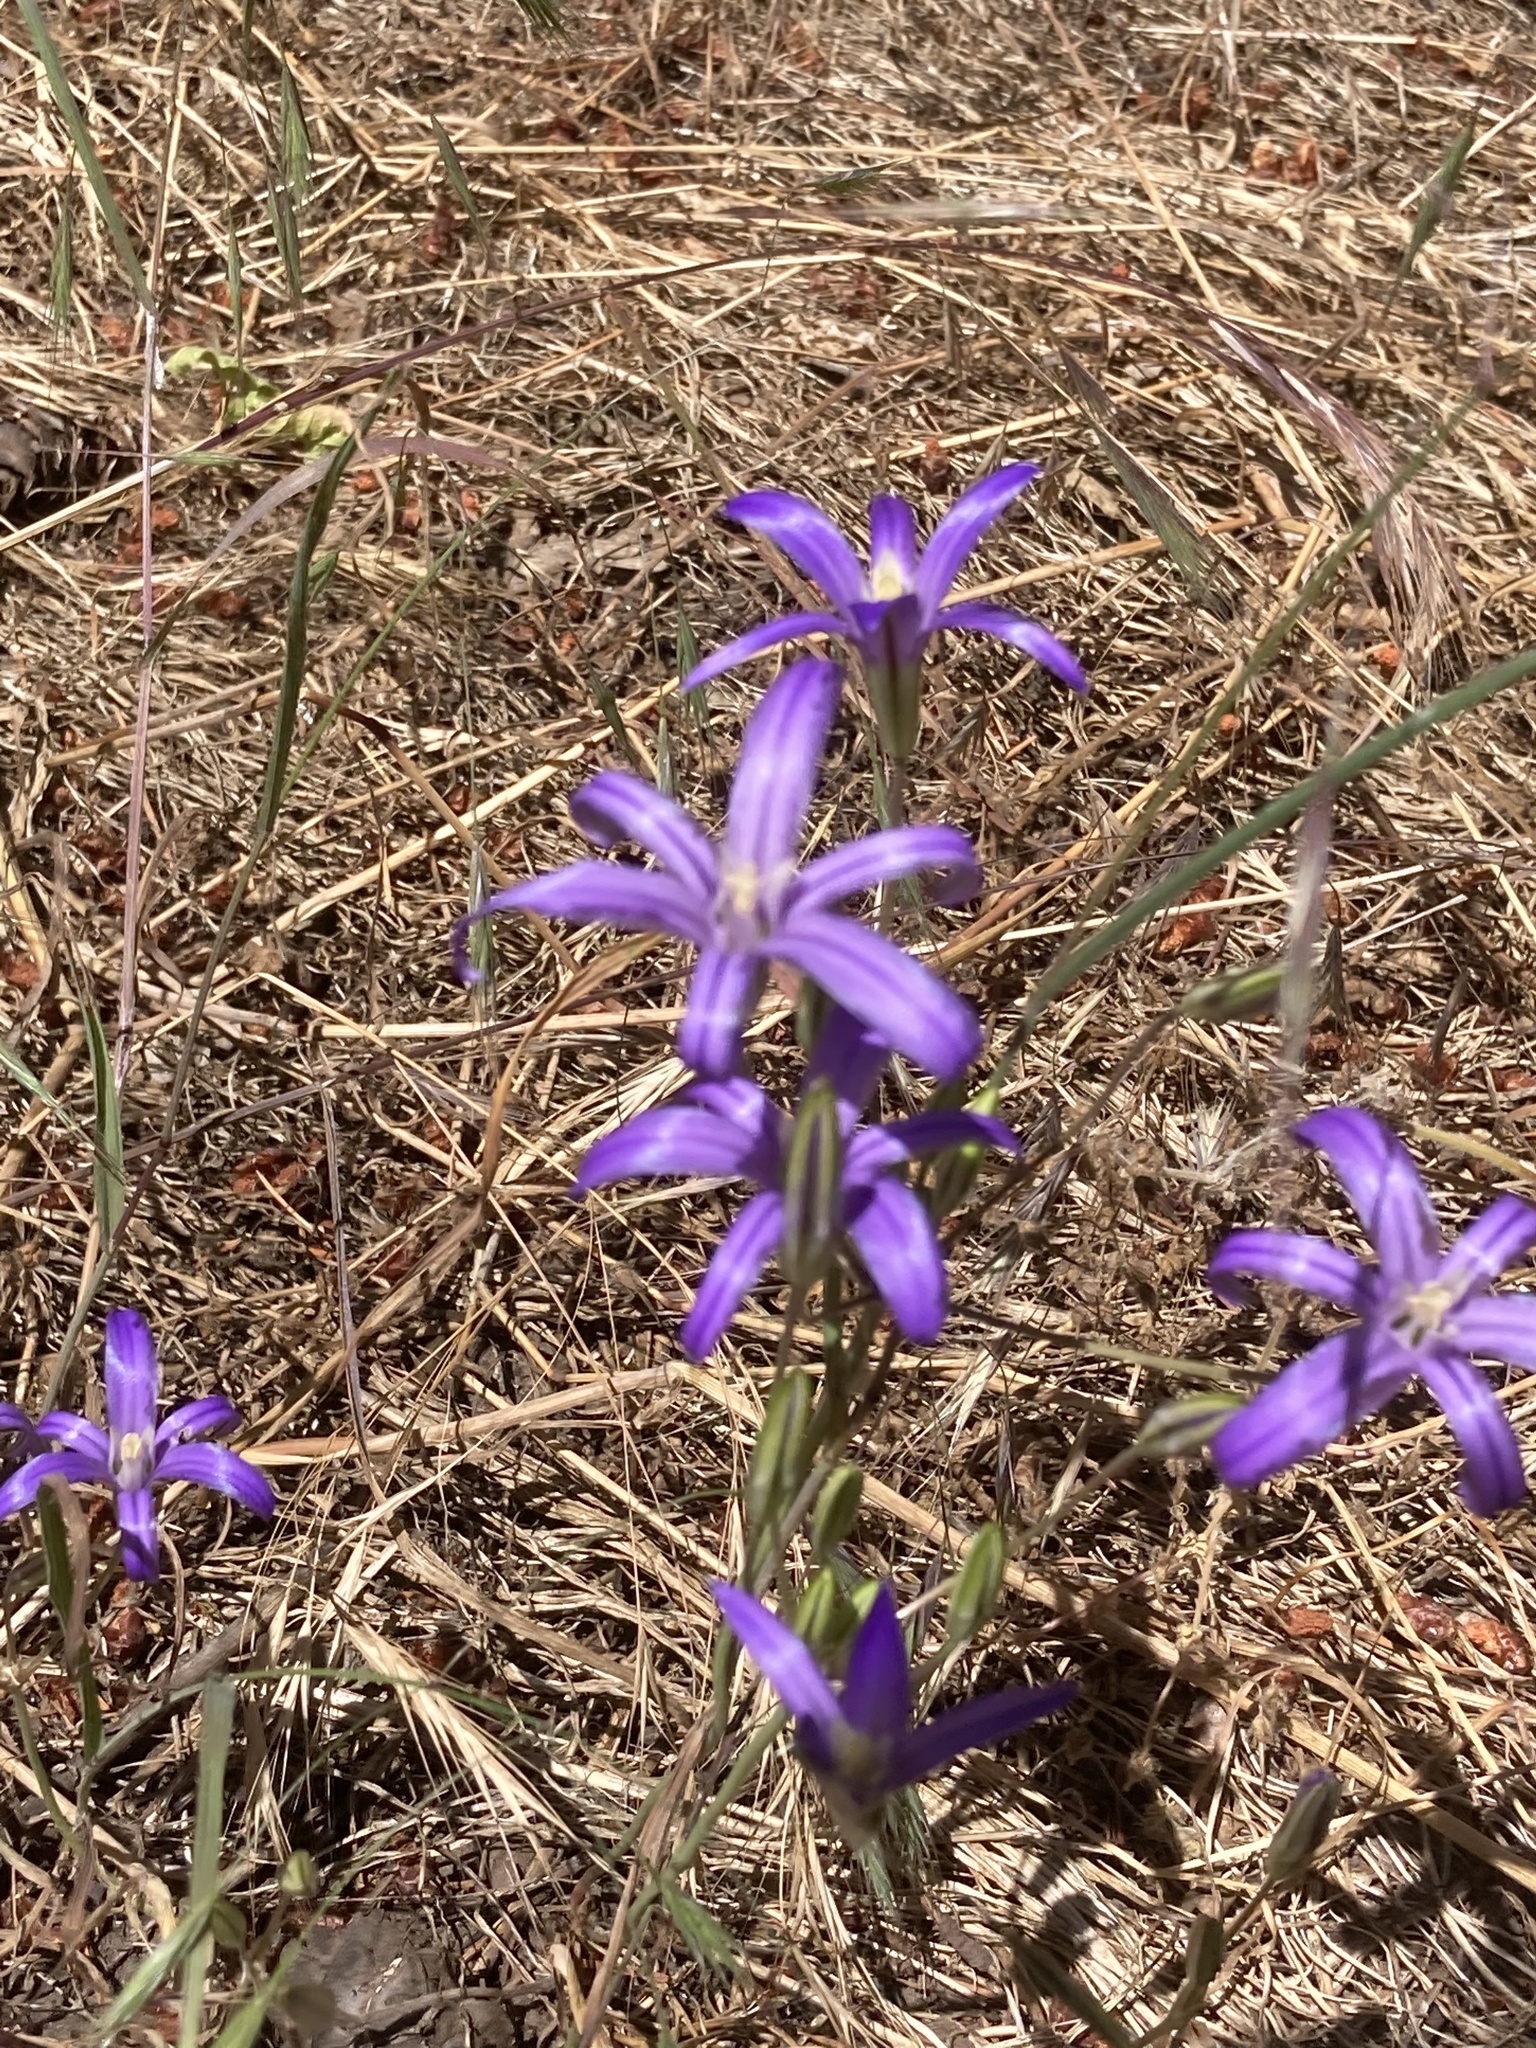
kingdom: Plantae
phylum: Tracheophyta
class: Liliopsida
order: Asparagales
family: Asparagaceae
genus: Brodiaea
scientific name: Brodiaea coronaria
